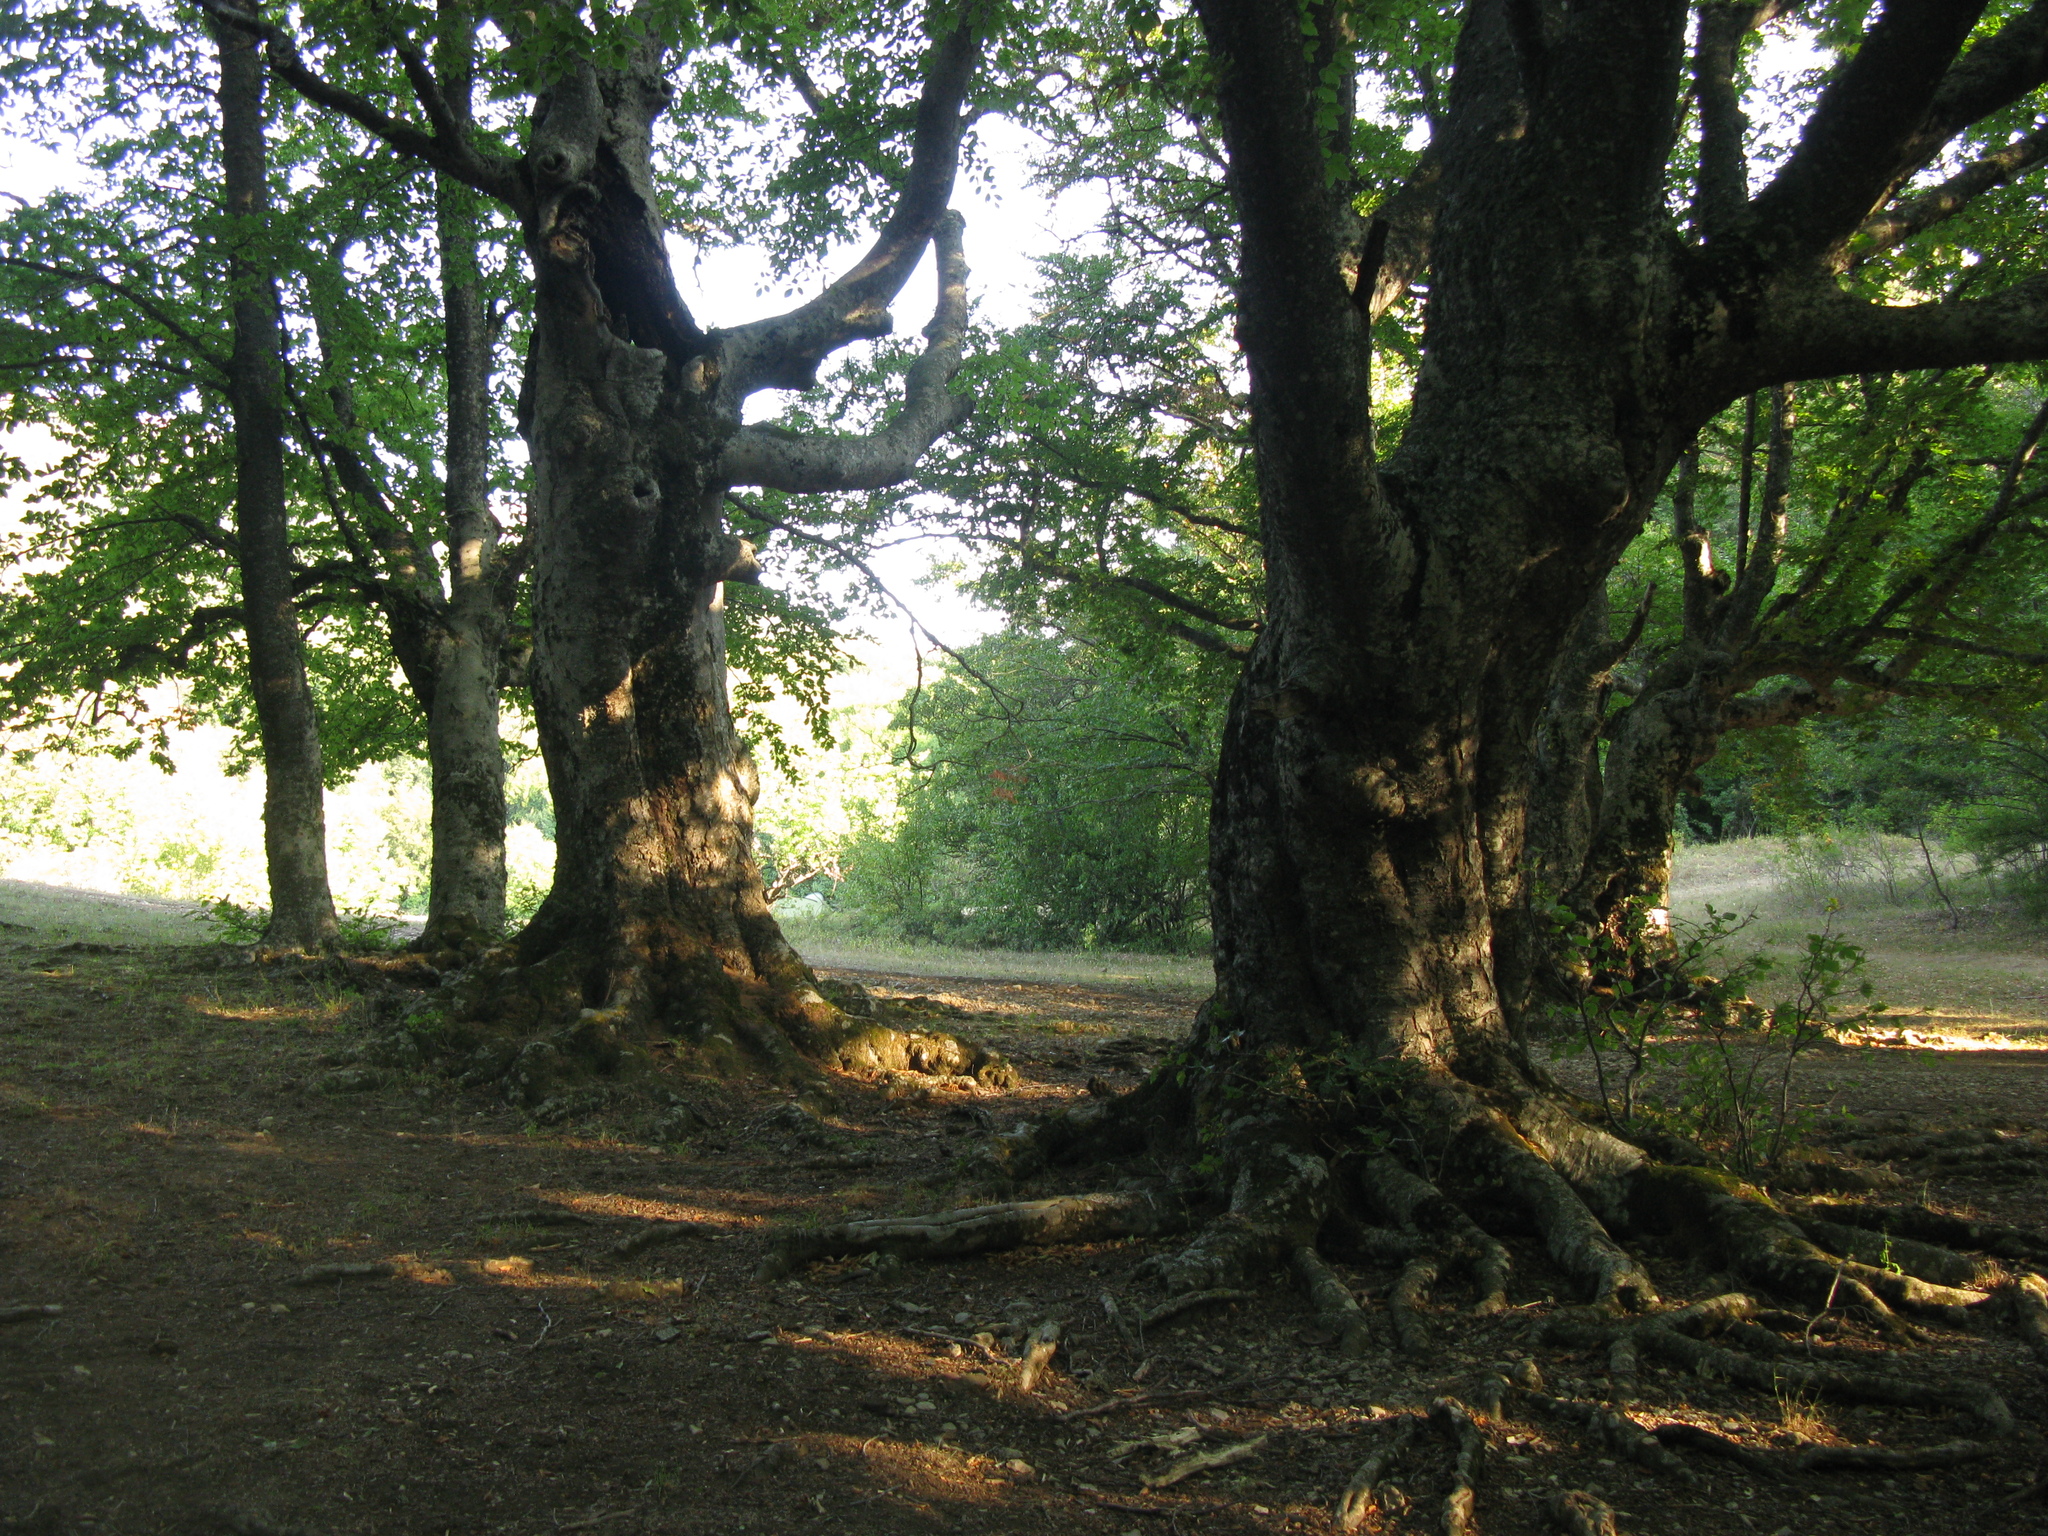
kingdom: Plantae
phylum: Tracheophyta
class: Magnoliopsida
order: Fagales
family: Fagaceae
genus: Fagus
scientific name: Fagus taurica
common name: Crimean beech
